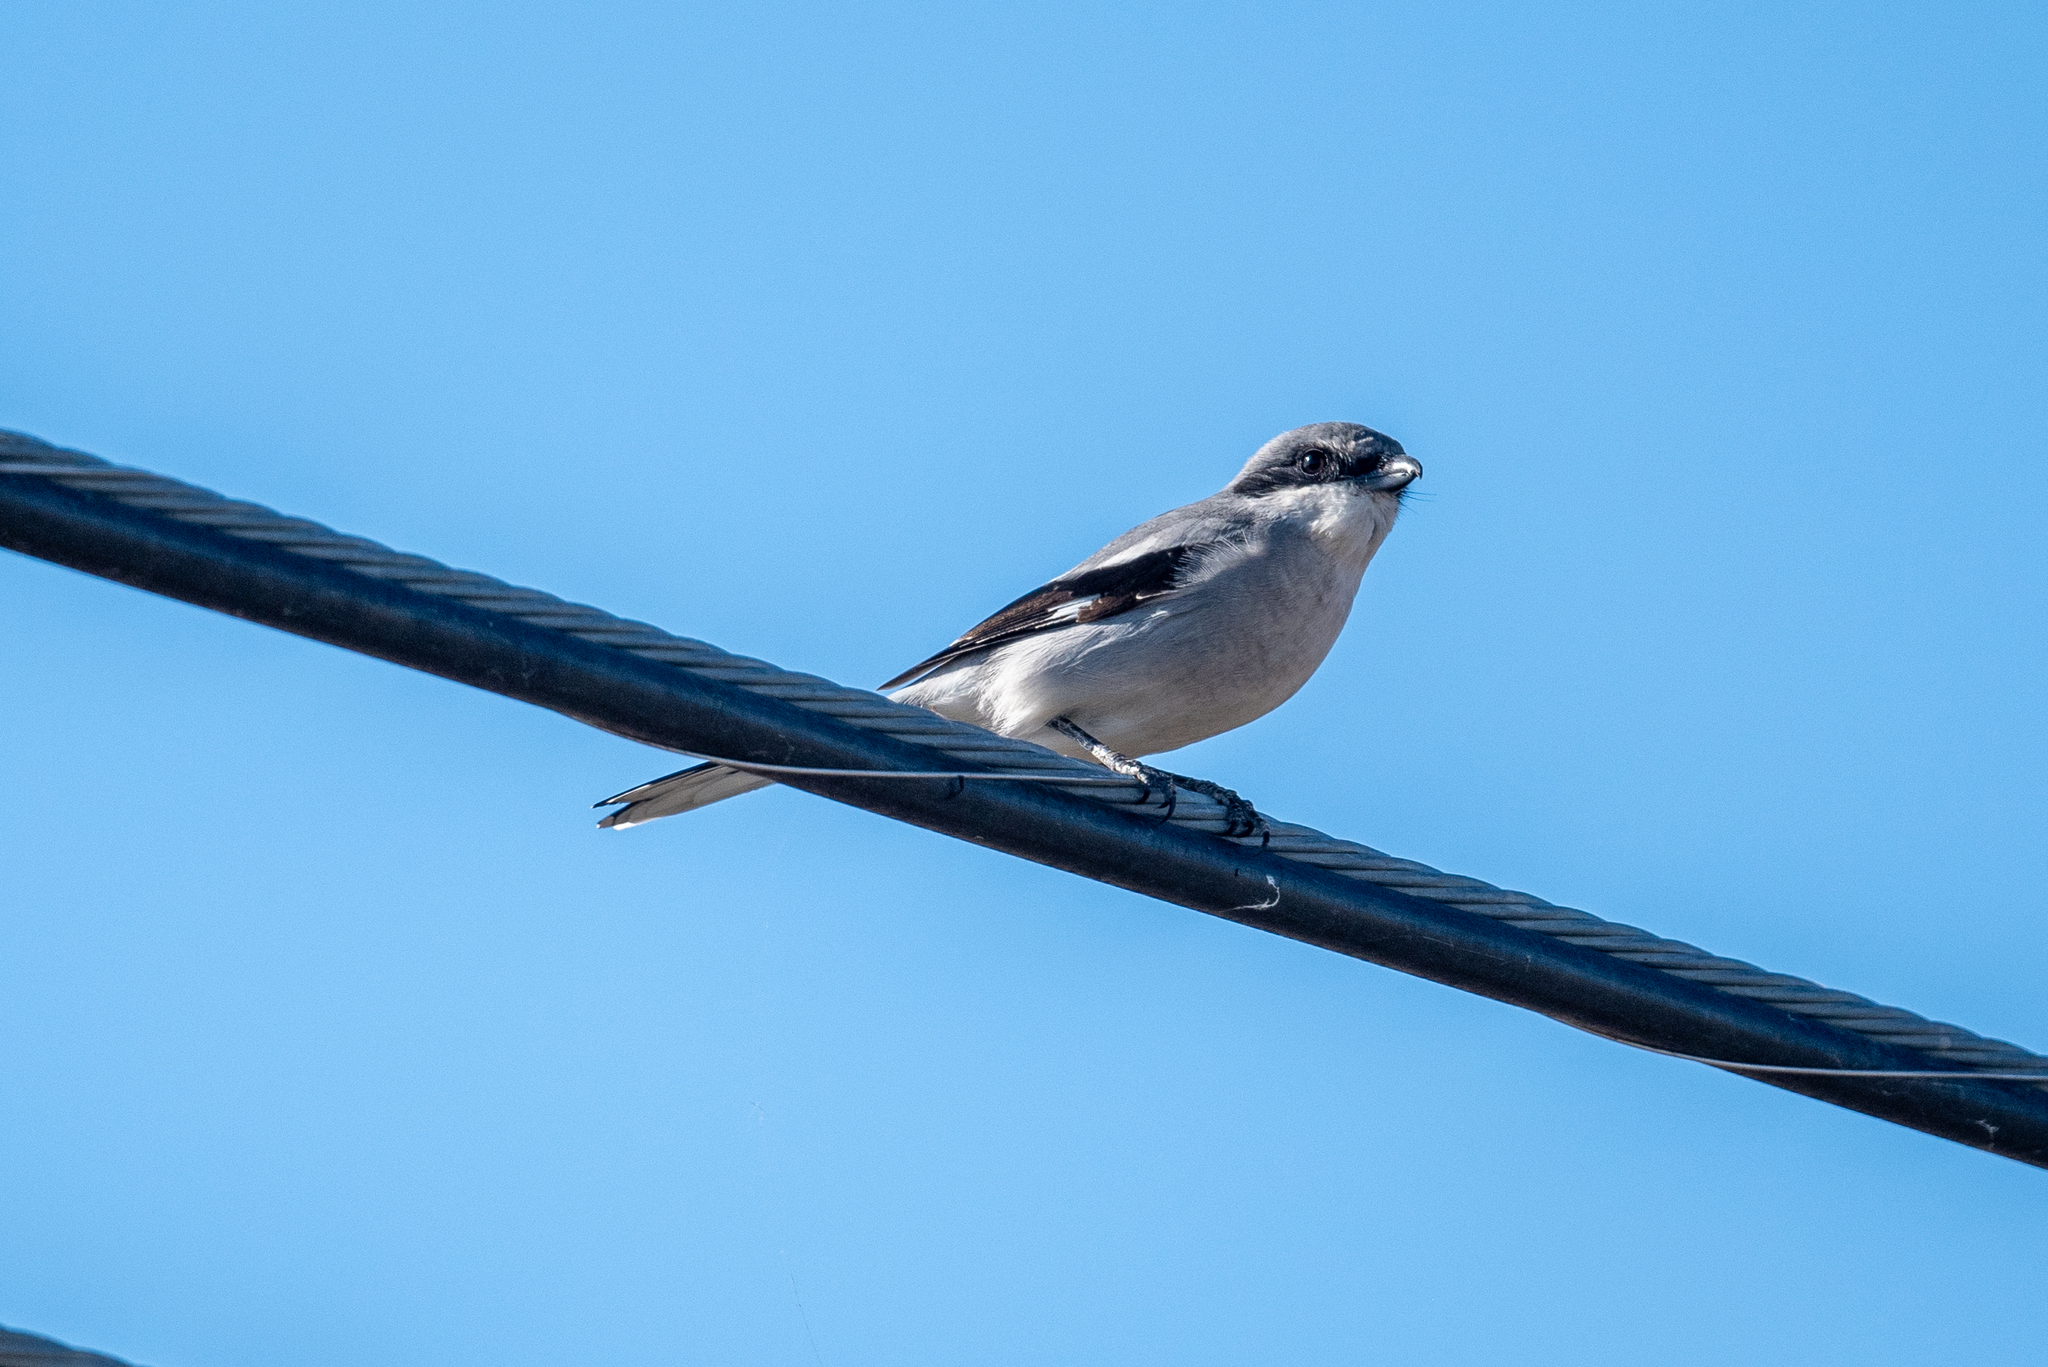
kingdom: Animalia
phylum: Chordata
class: Aves
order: Passeriformes
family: Laniidae
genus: Lanius
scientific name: Lanius ludovicianus
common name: Loggerhead shrike
